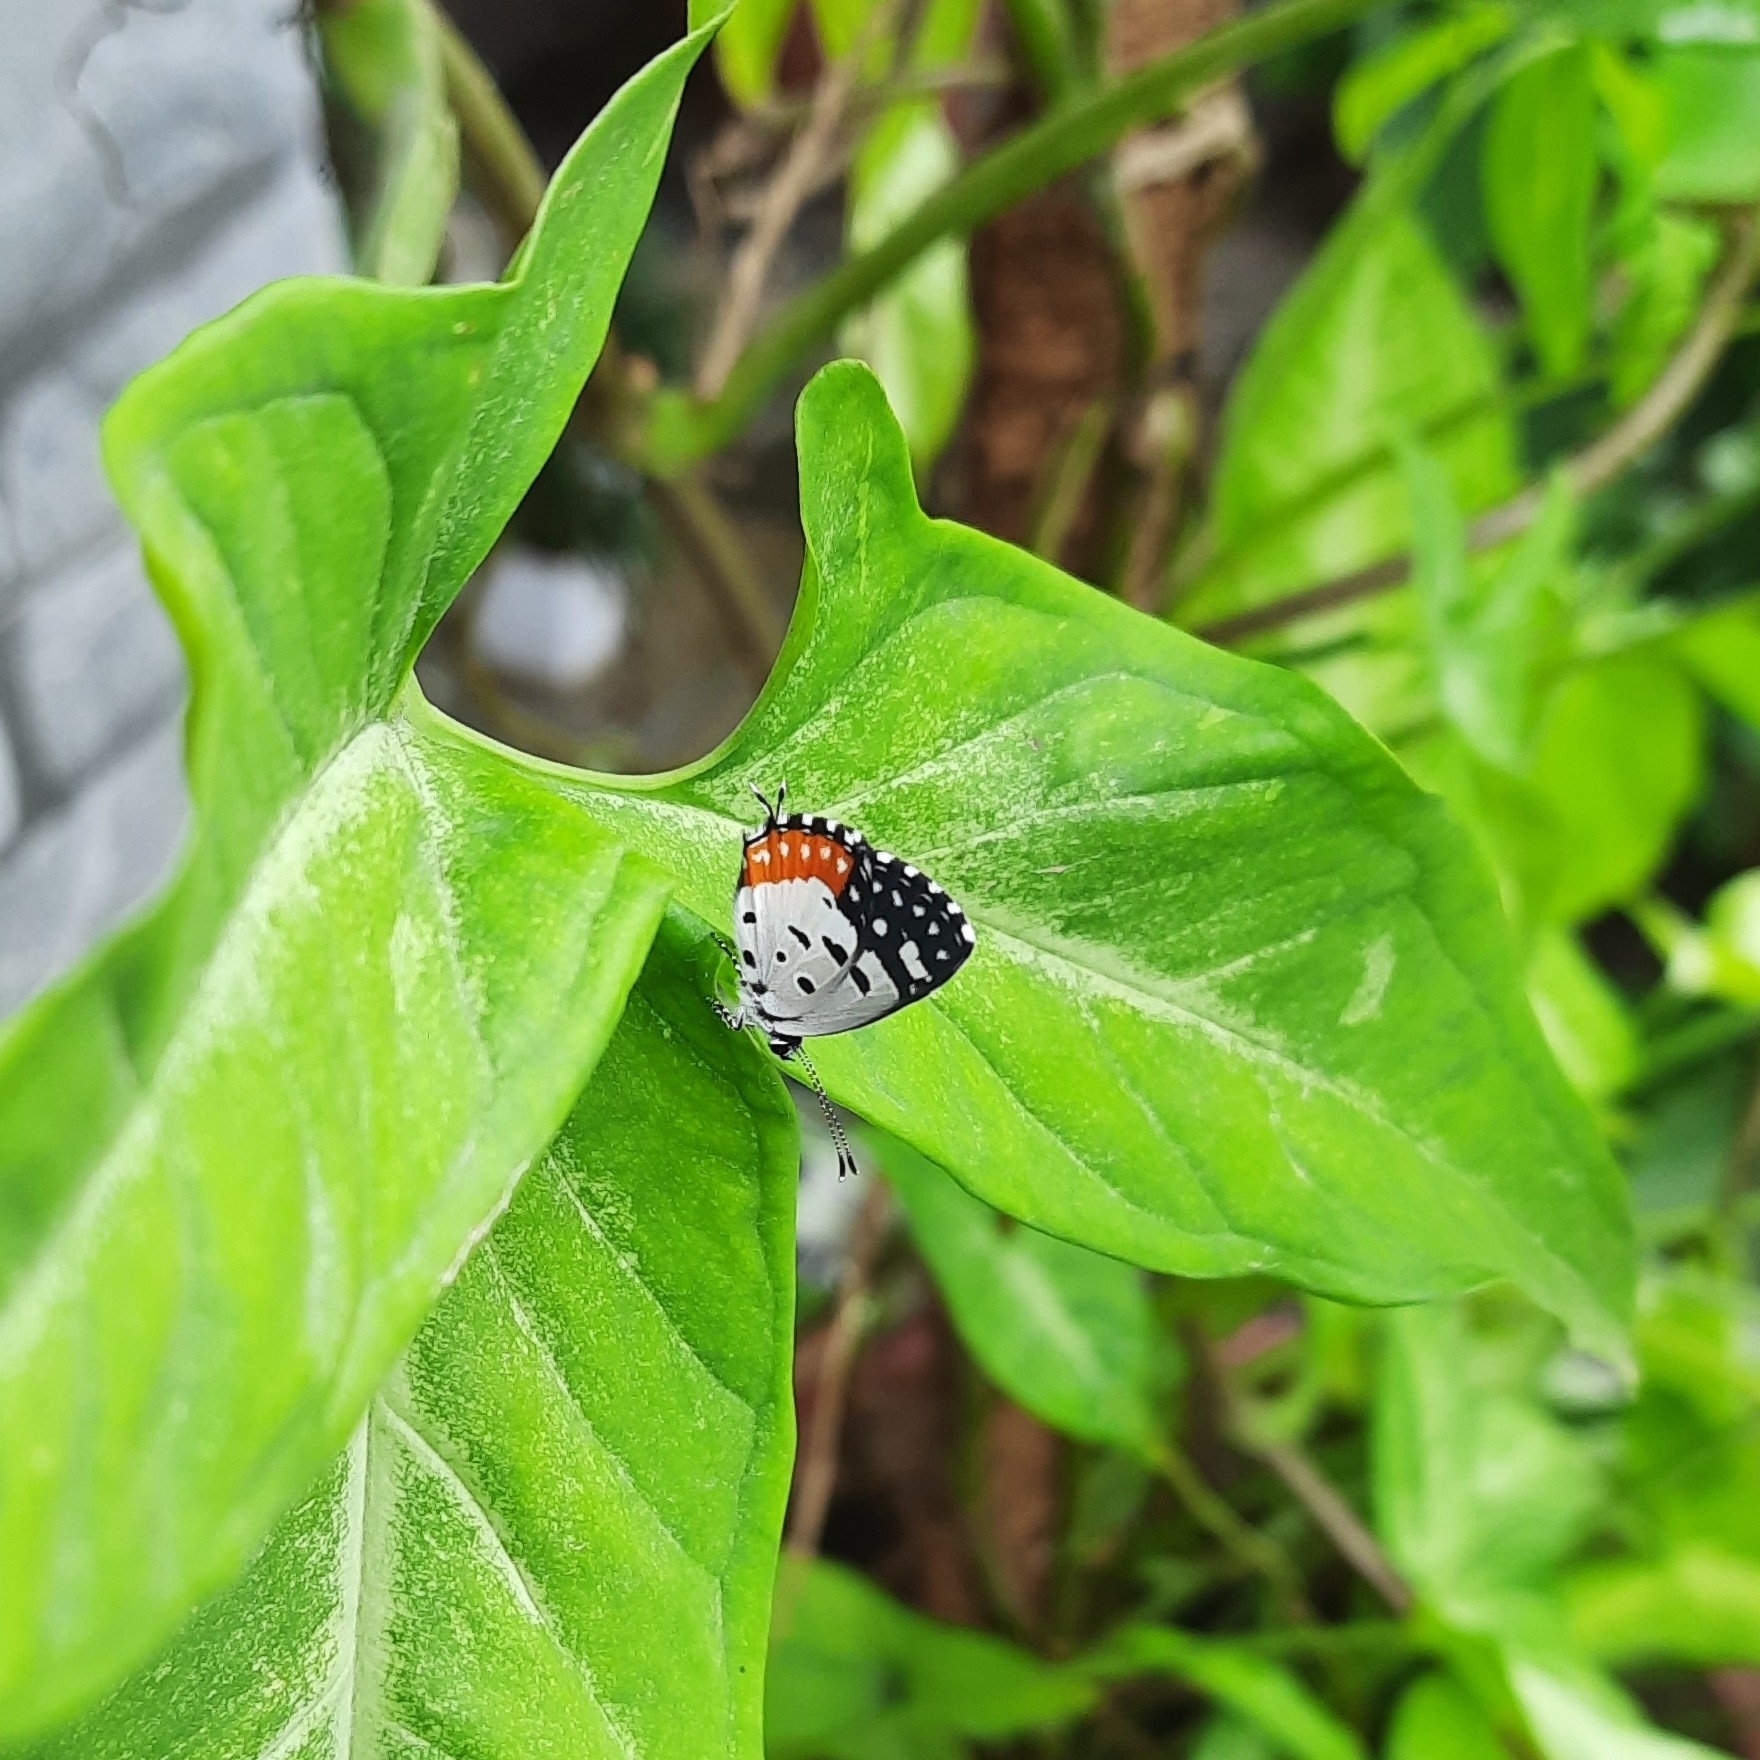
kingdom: Animalia
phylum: Arthropoda
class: Insecta
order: Lepidoptera
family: Lycaenidae
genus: Talicada
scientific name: Talicada nyseus
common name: Red pierrot
